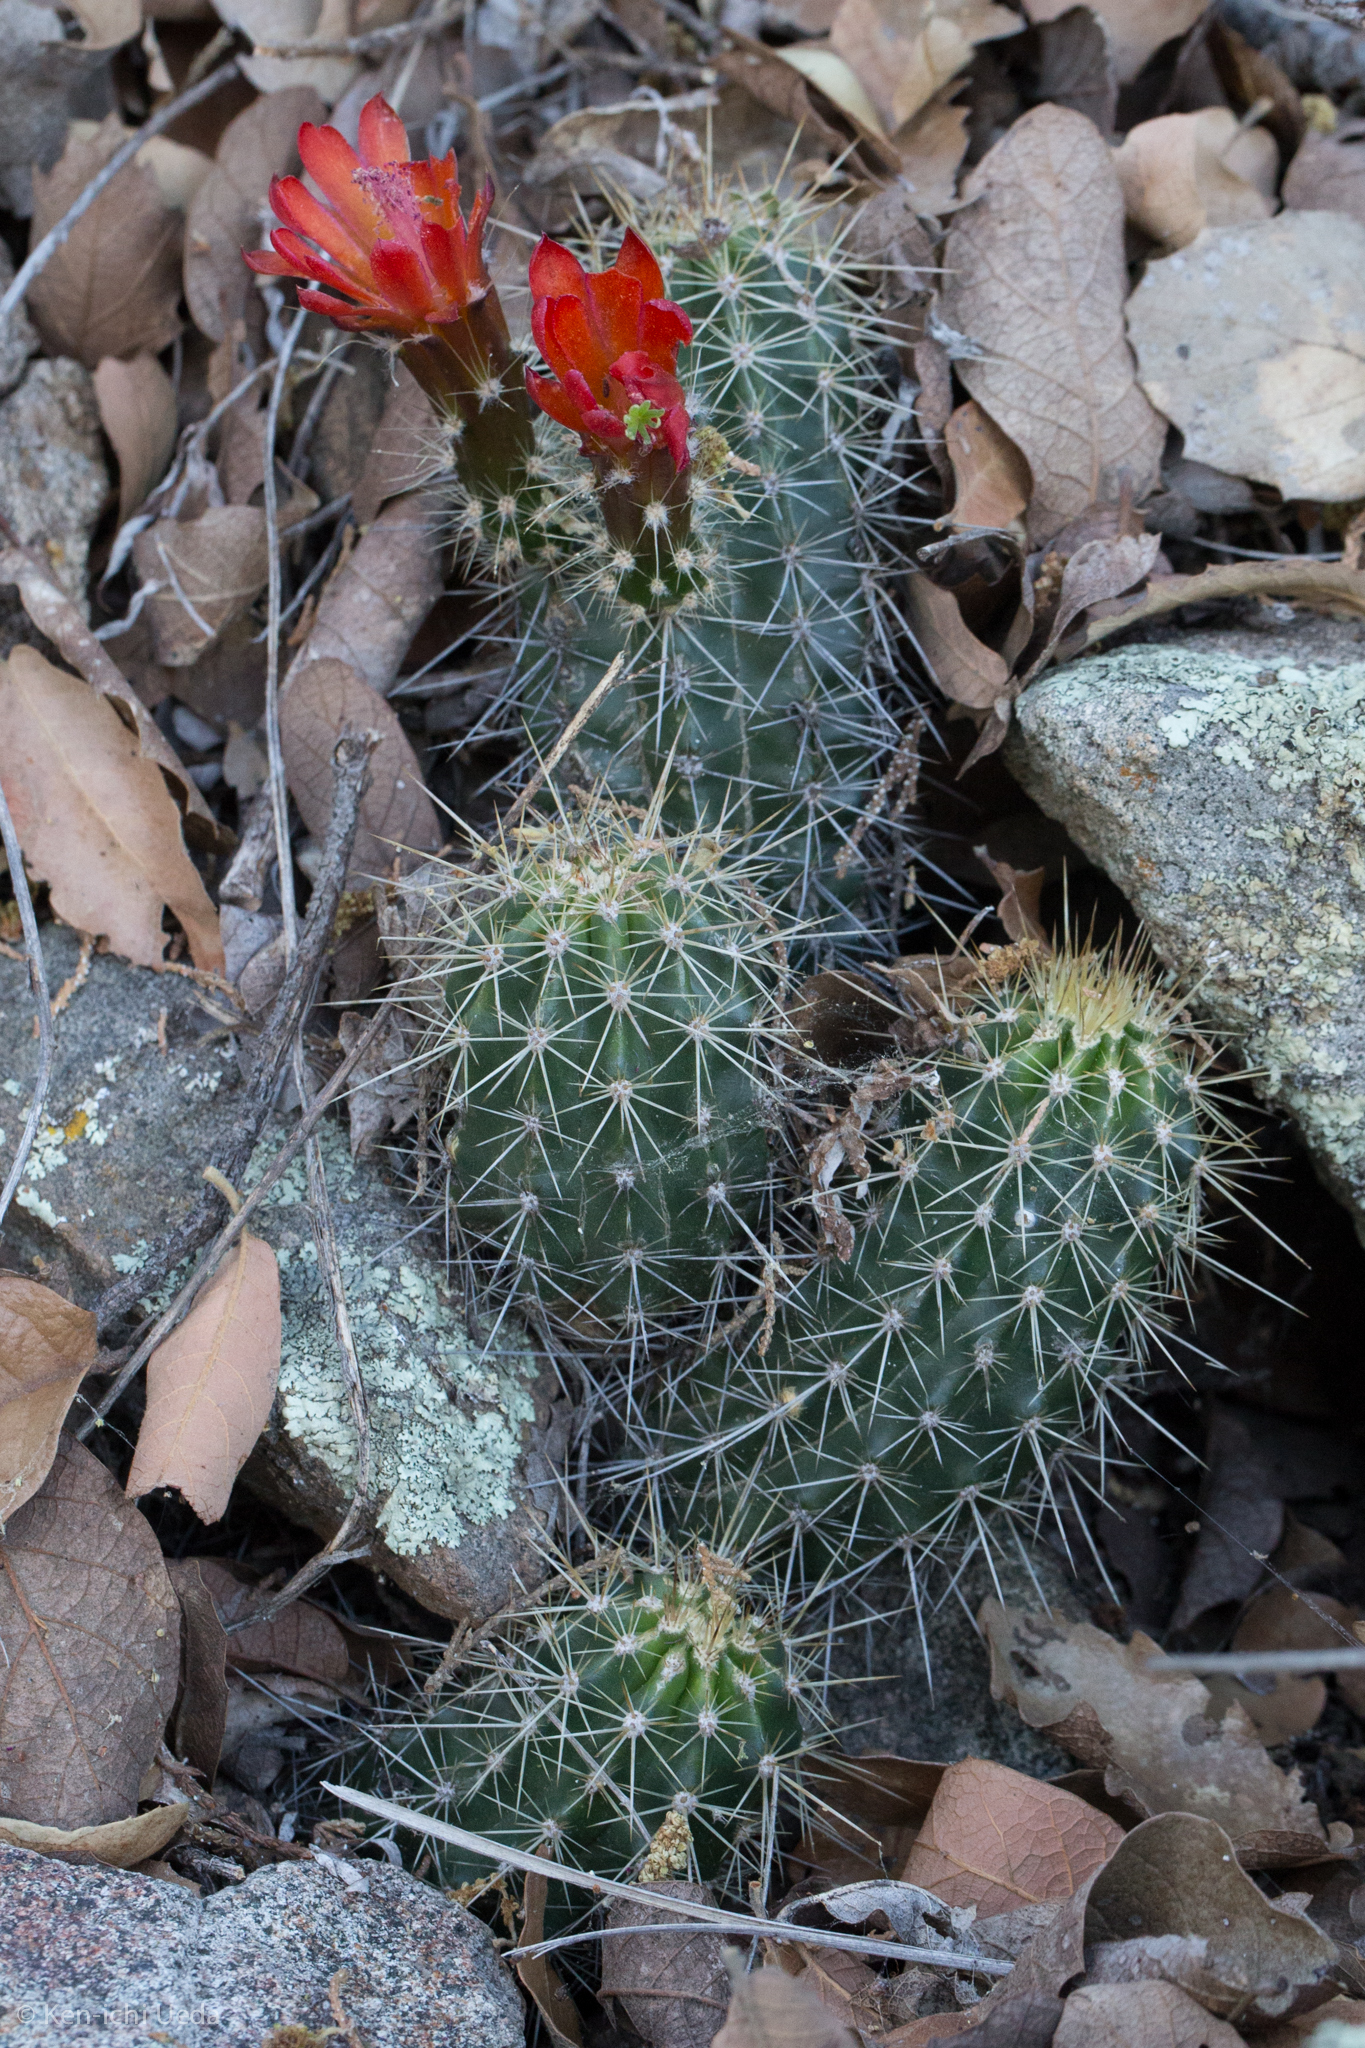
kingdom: Plantae
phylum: Tracheophyta
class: Magnoliopsida
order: Caryophyllales
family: Cactaceae
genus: Echinocereus
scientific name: Echinocereus coccineus
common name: Scarlet hedgehog cactus
